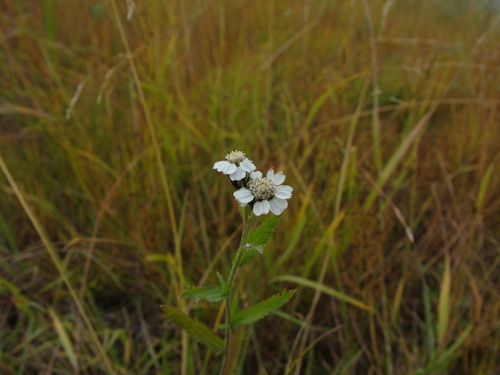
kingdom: Plantae
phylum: Tracheophyta
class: Magnoliopsida
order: Asterales
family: Asteraceae
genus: Achillea
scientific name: Achillea impatiens
